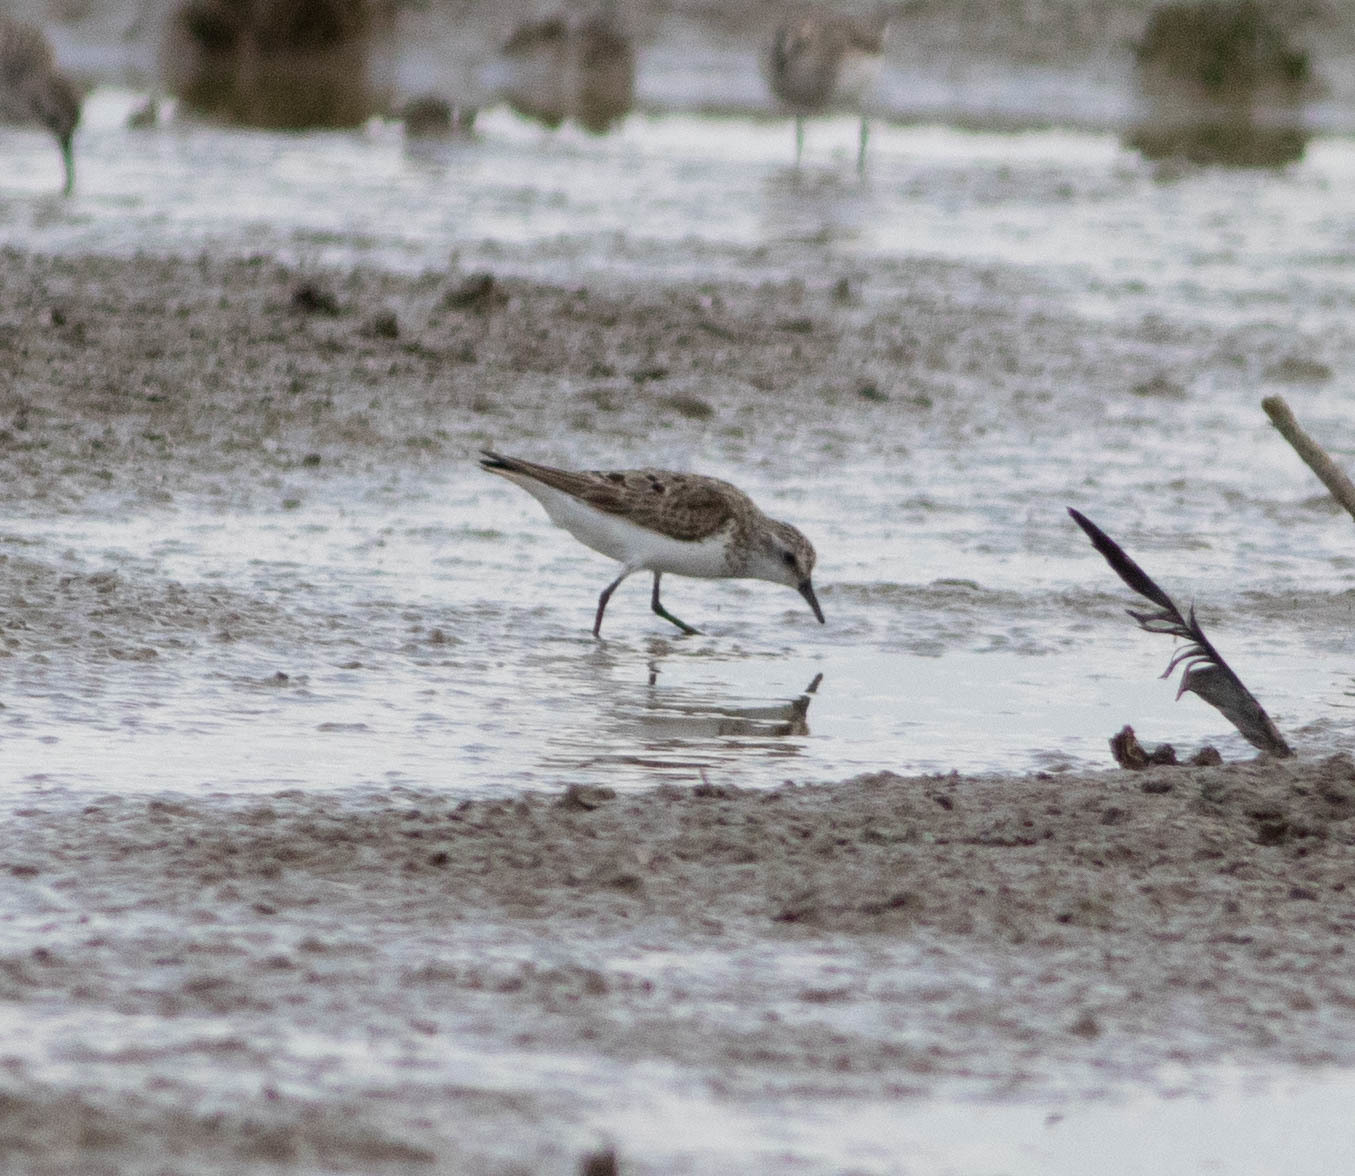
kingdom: Animalia
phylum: Chordata
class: Aves
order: Charadriiformes
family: Scolopacidae
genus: Calidris
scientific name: Calidris pusilla
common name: Semipalmated sandpiper
